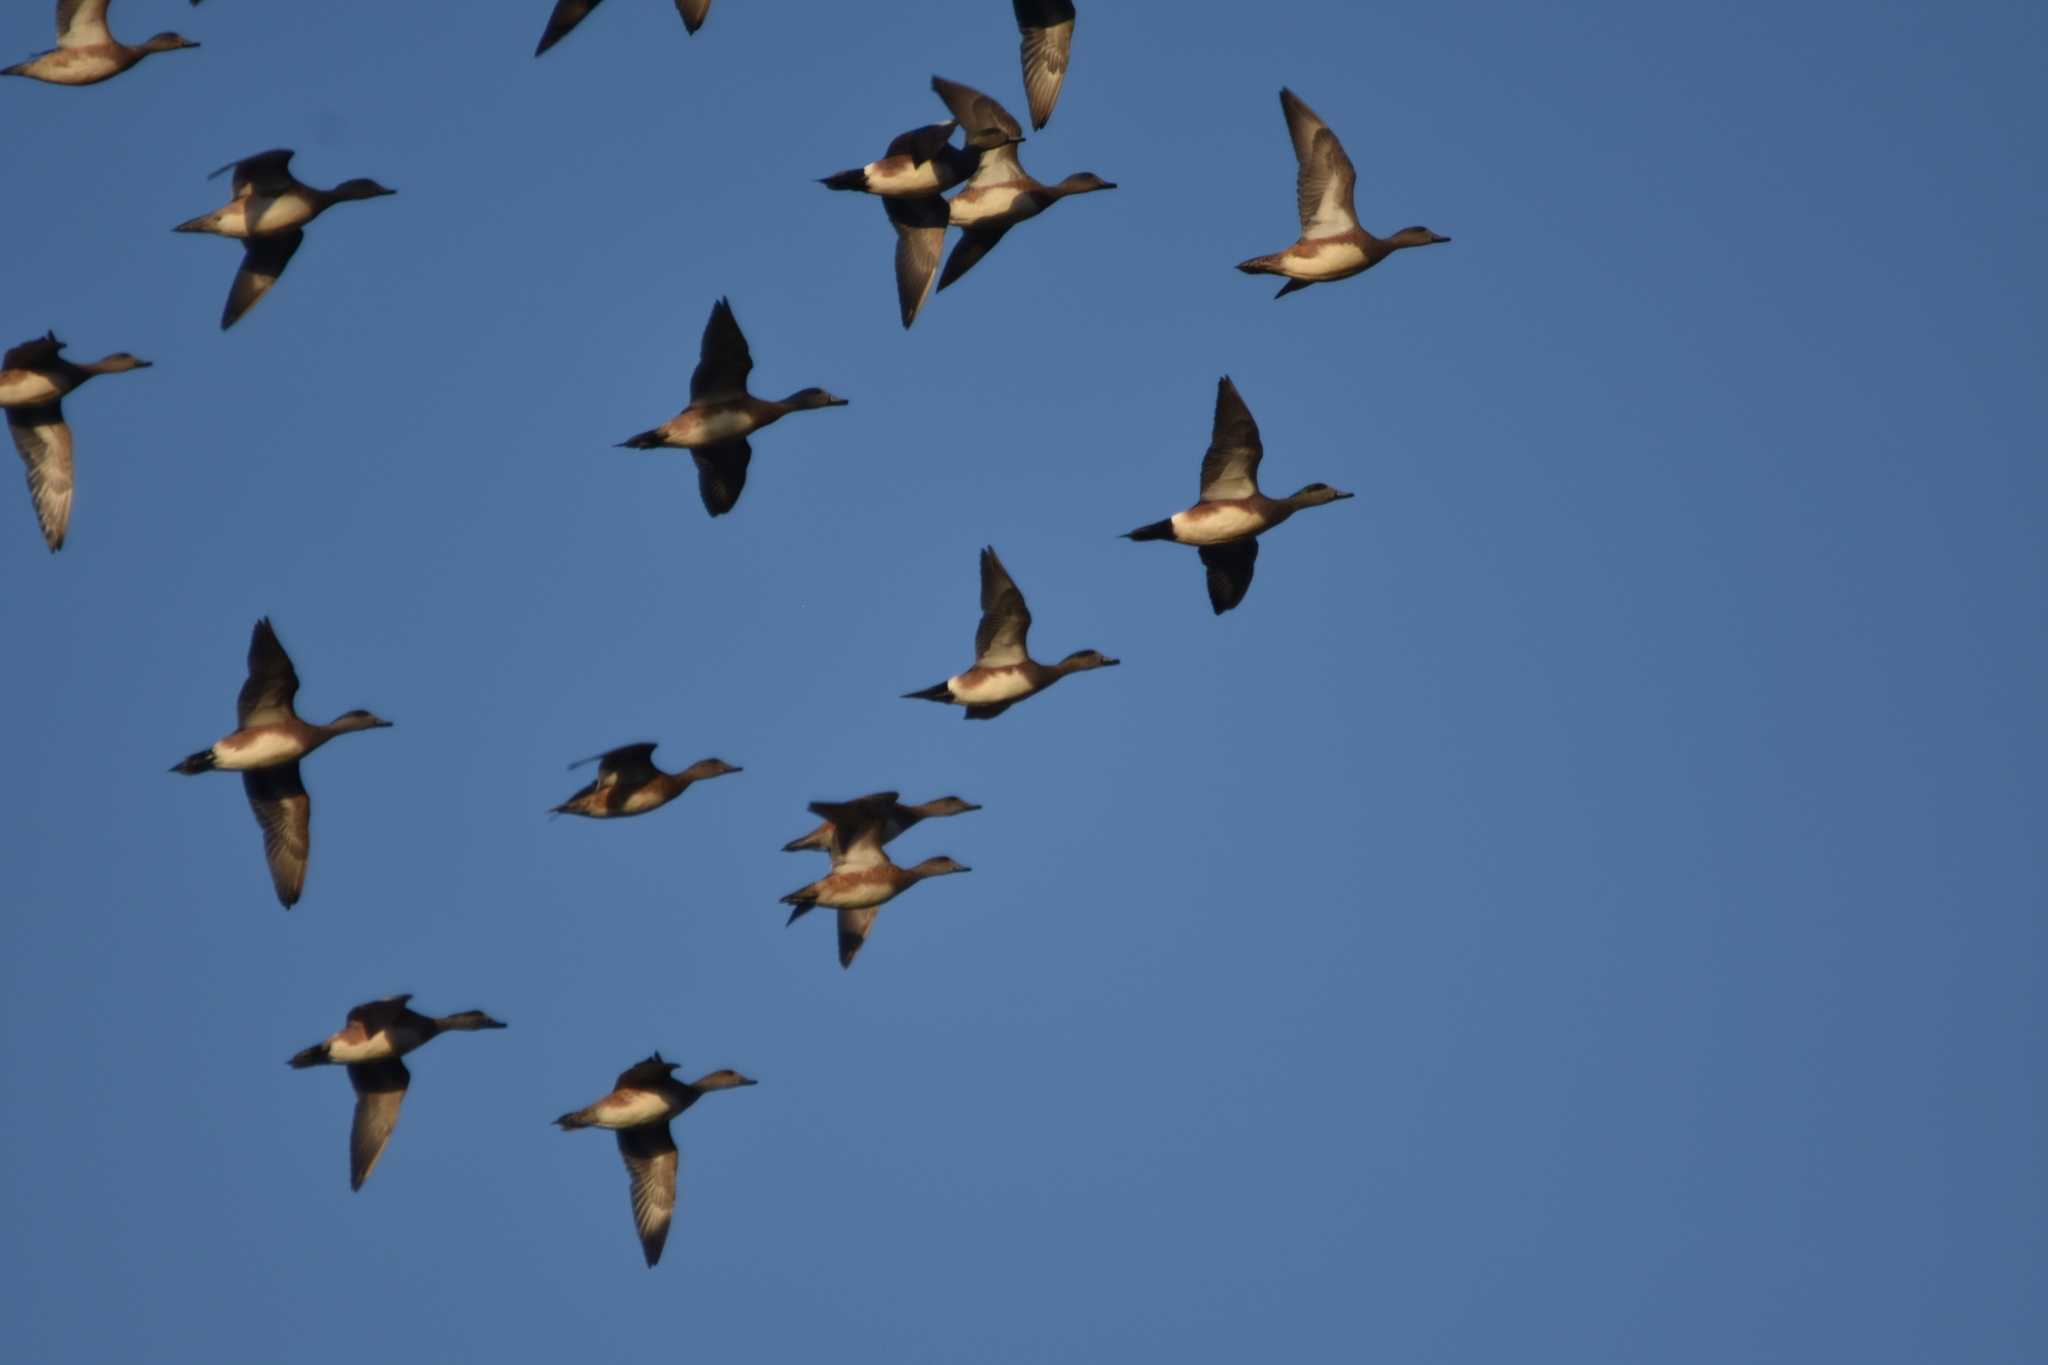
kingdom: Animalia
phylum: Chordata
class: Aves
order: Anseriformes
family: Anatidae
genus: Mareca
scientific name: Mareca americana
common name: American wigeon
